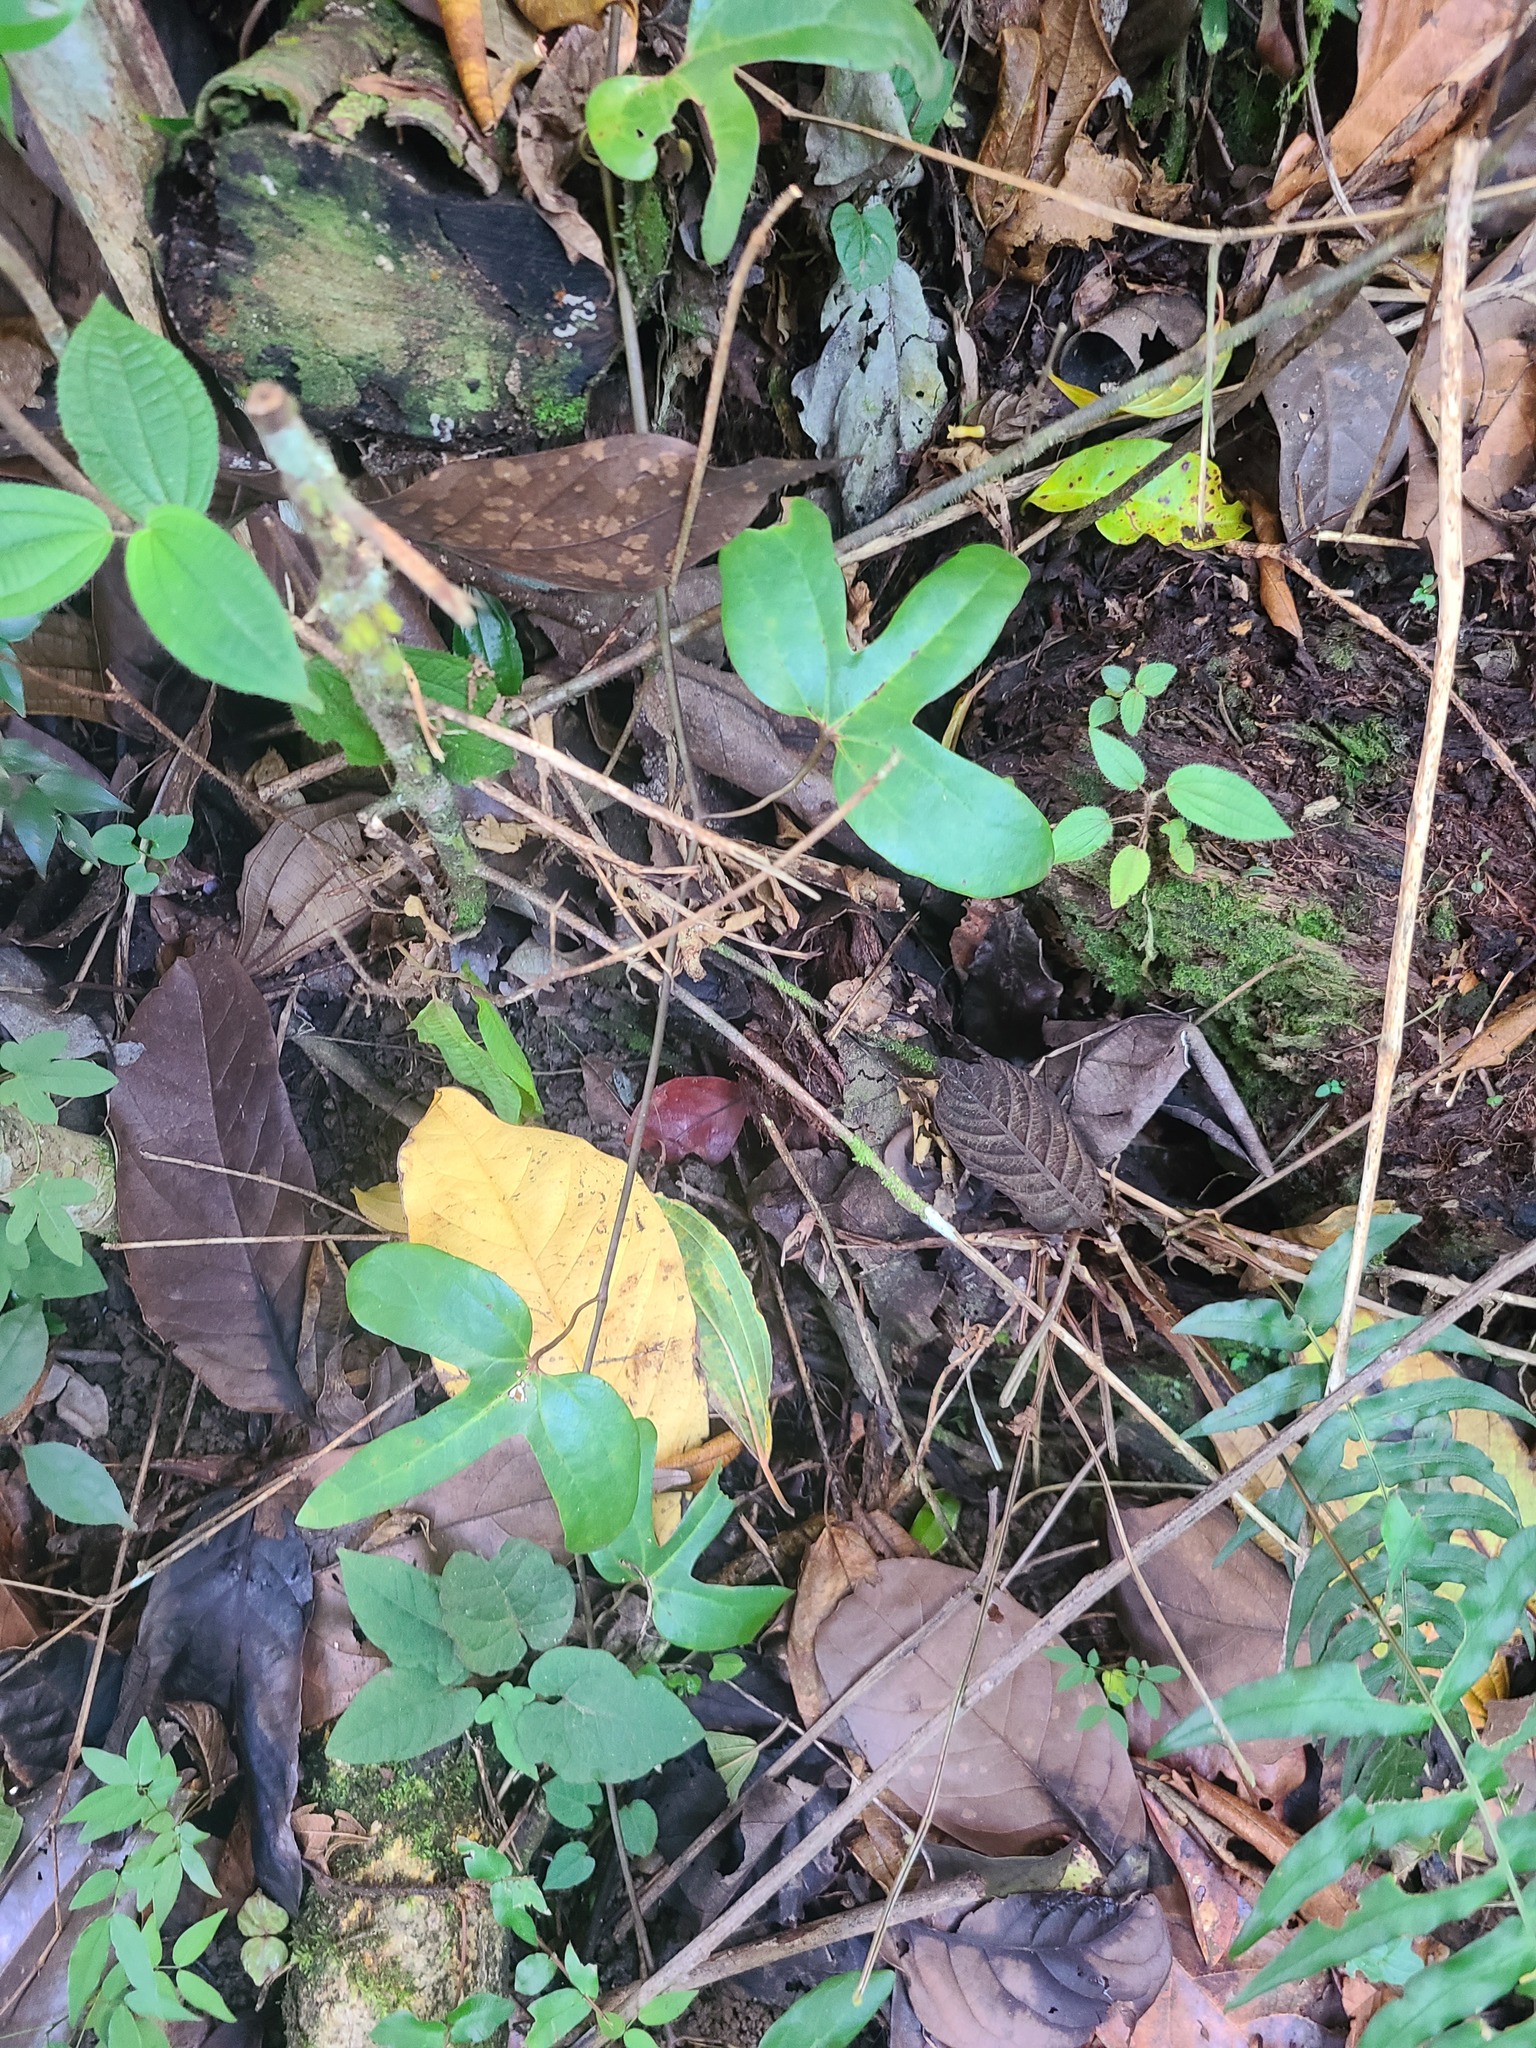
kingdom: Plantae
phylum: Tracheophyta
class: Magnoliopsida
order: Piperales
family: Aristolochiaceae
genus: Aristolochia
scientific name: Aristolochia trilobata
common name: Dutchman's pipe
